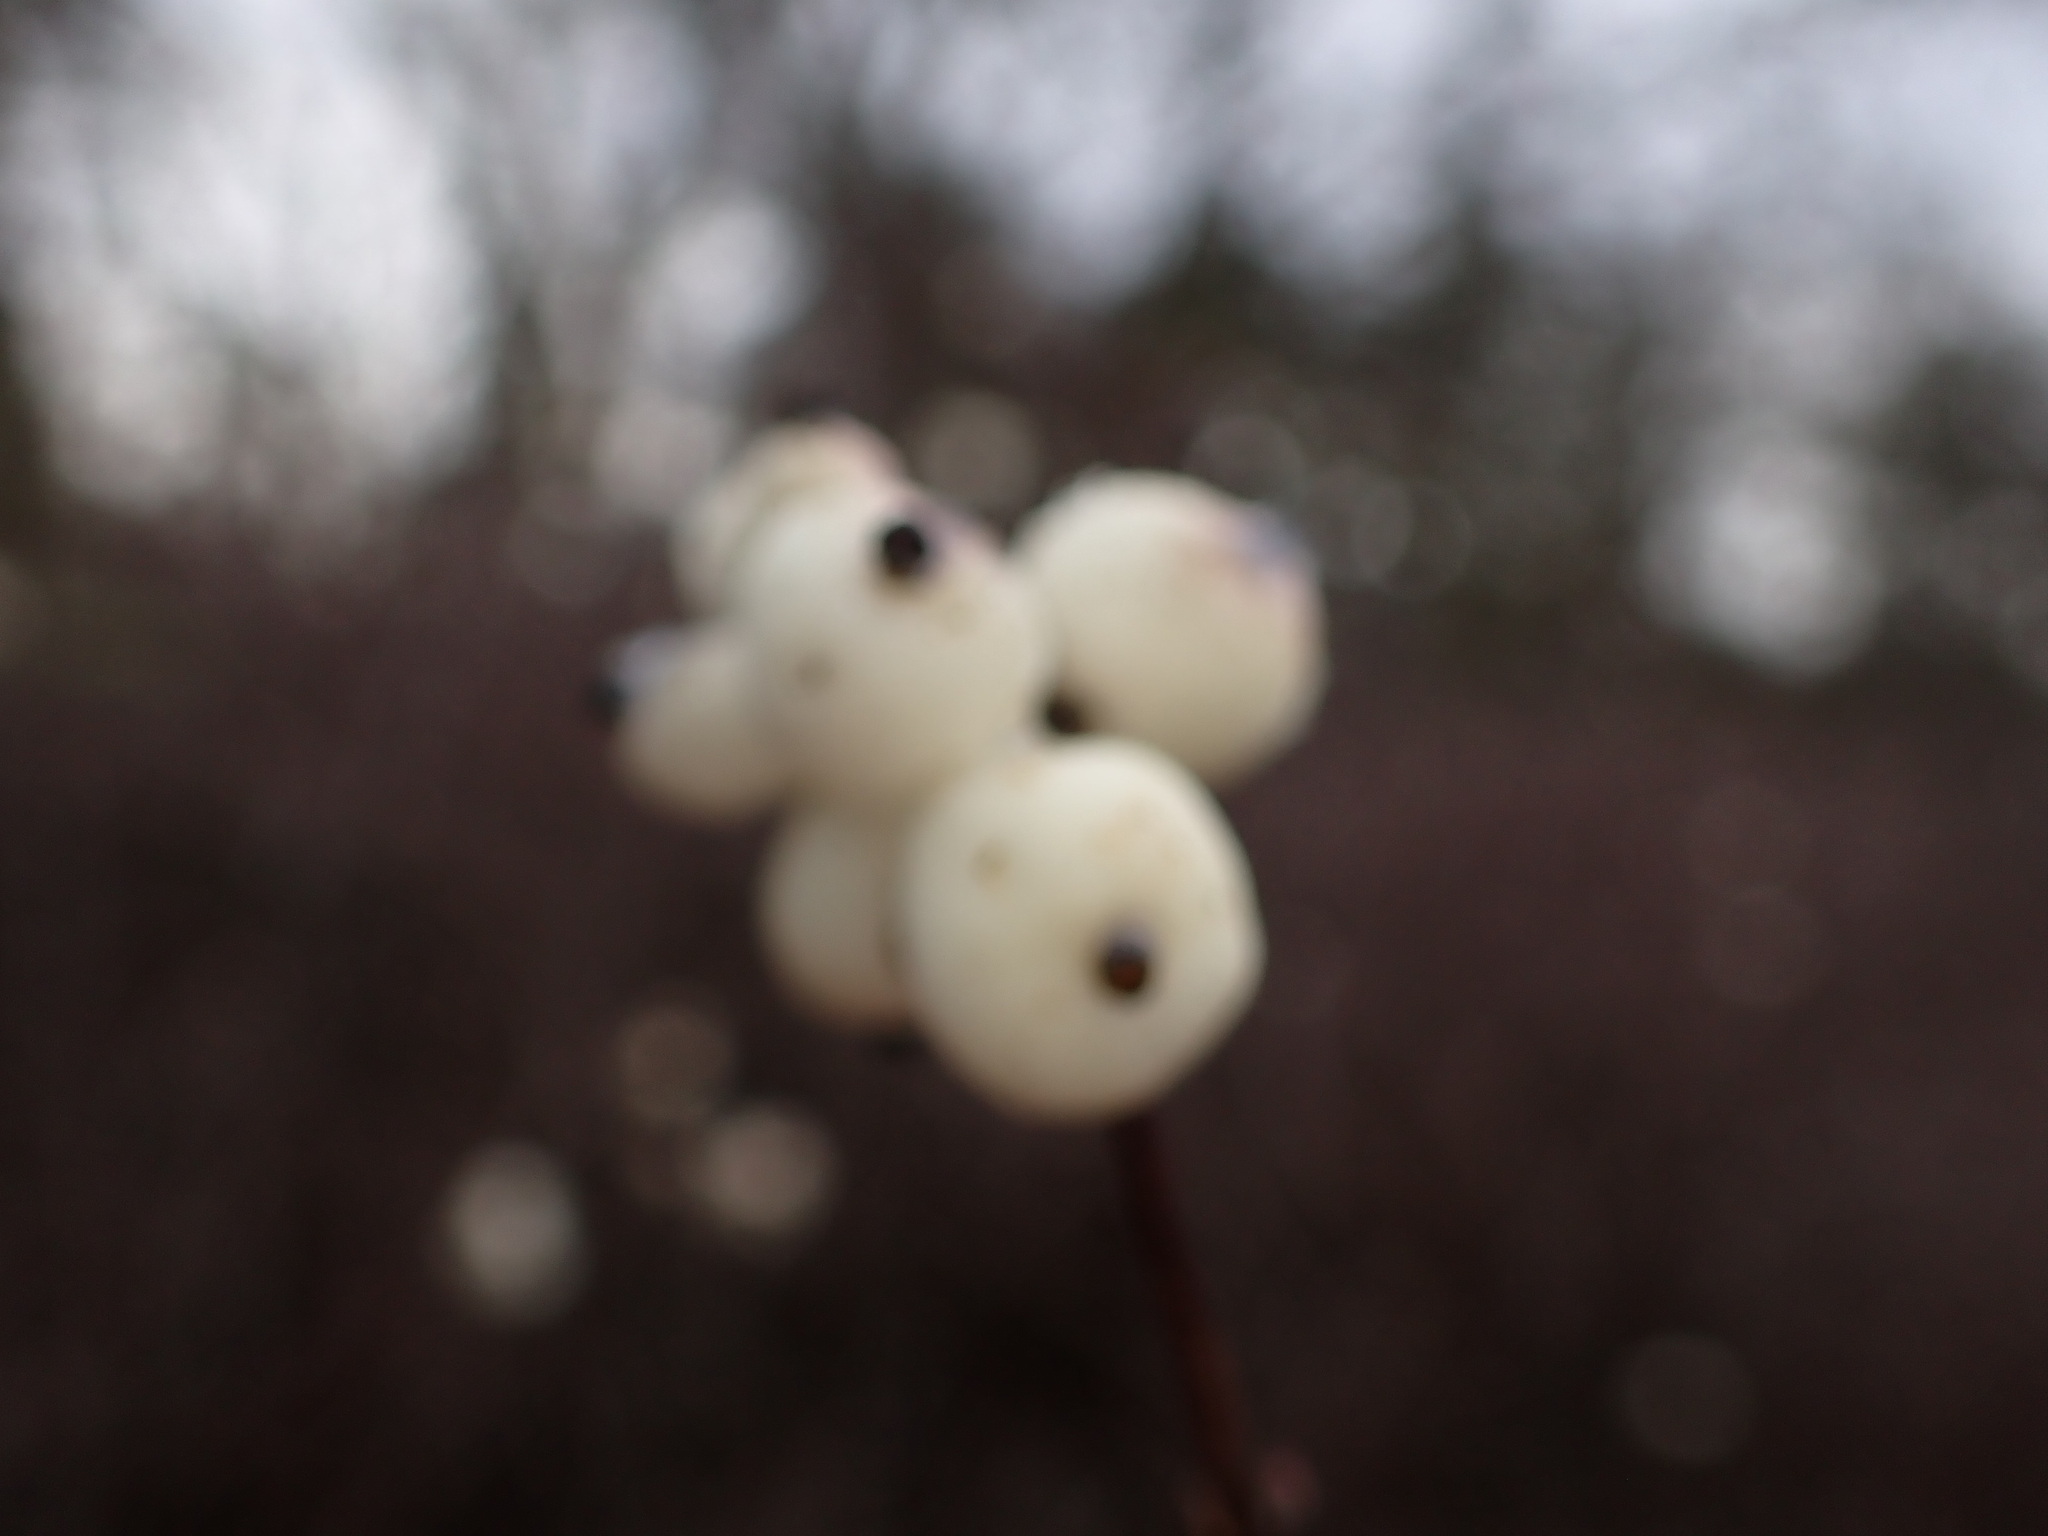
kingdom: Plantae
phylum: Tracheophyta
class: Magnoliopsida
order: Dipsacales
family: Caprifoliaceae
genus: Symphoricarpos
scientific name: Symphoricarpos albus
